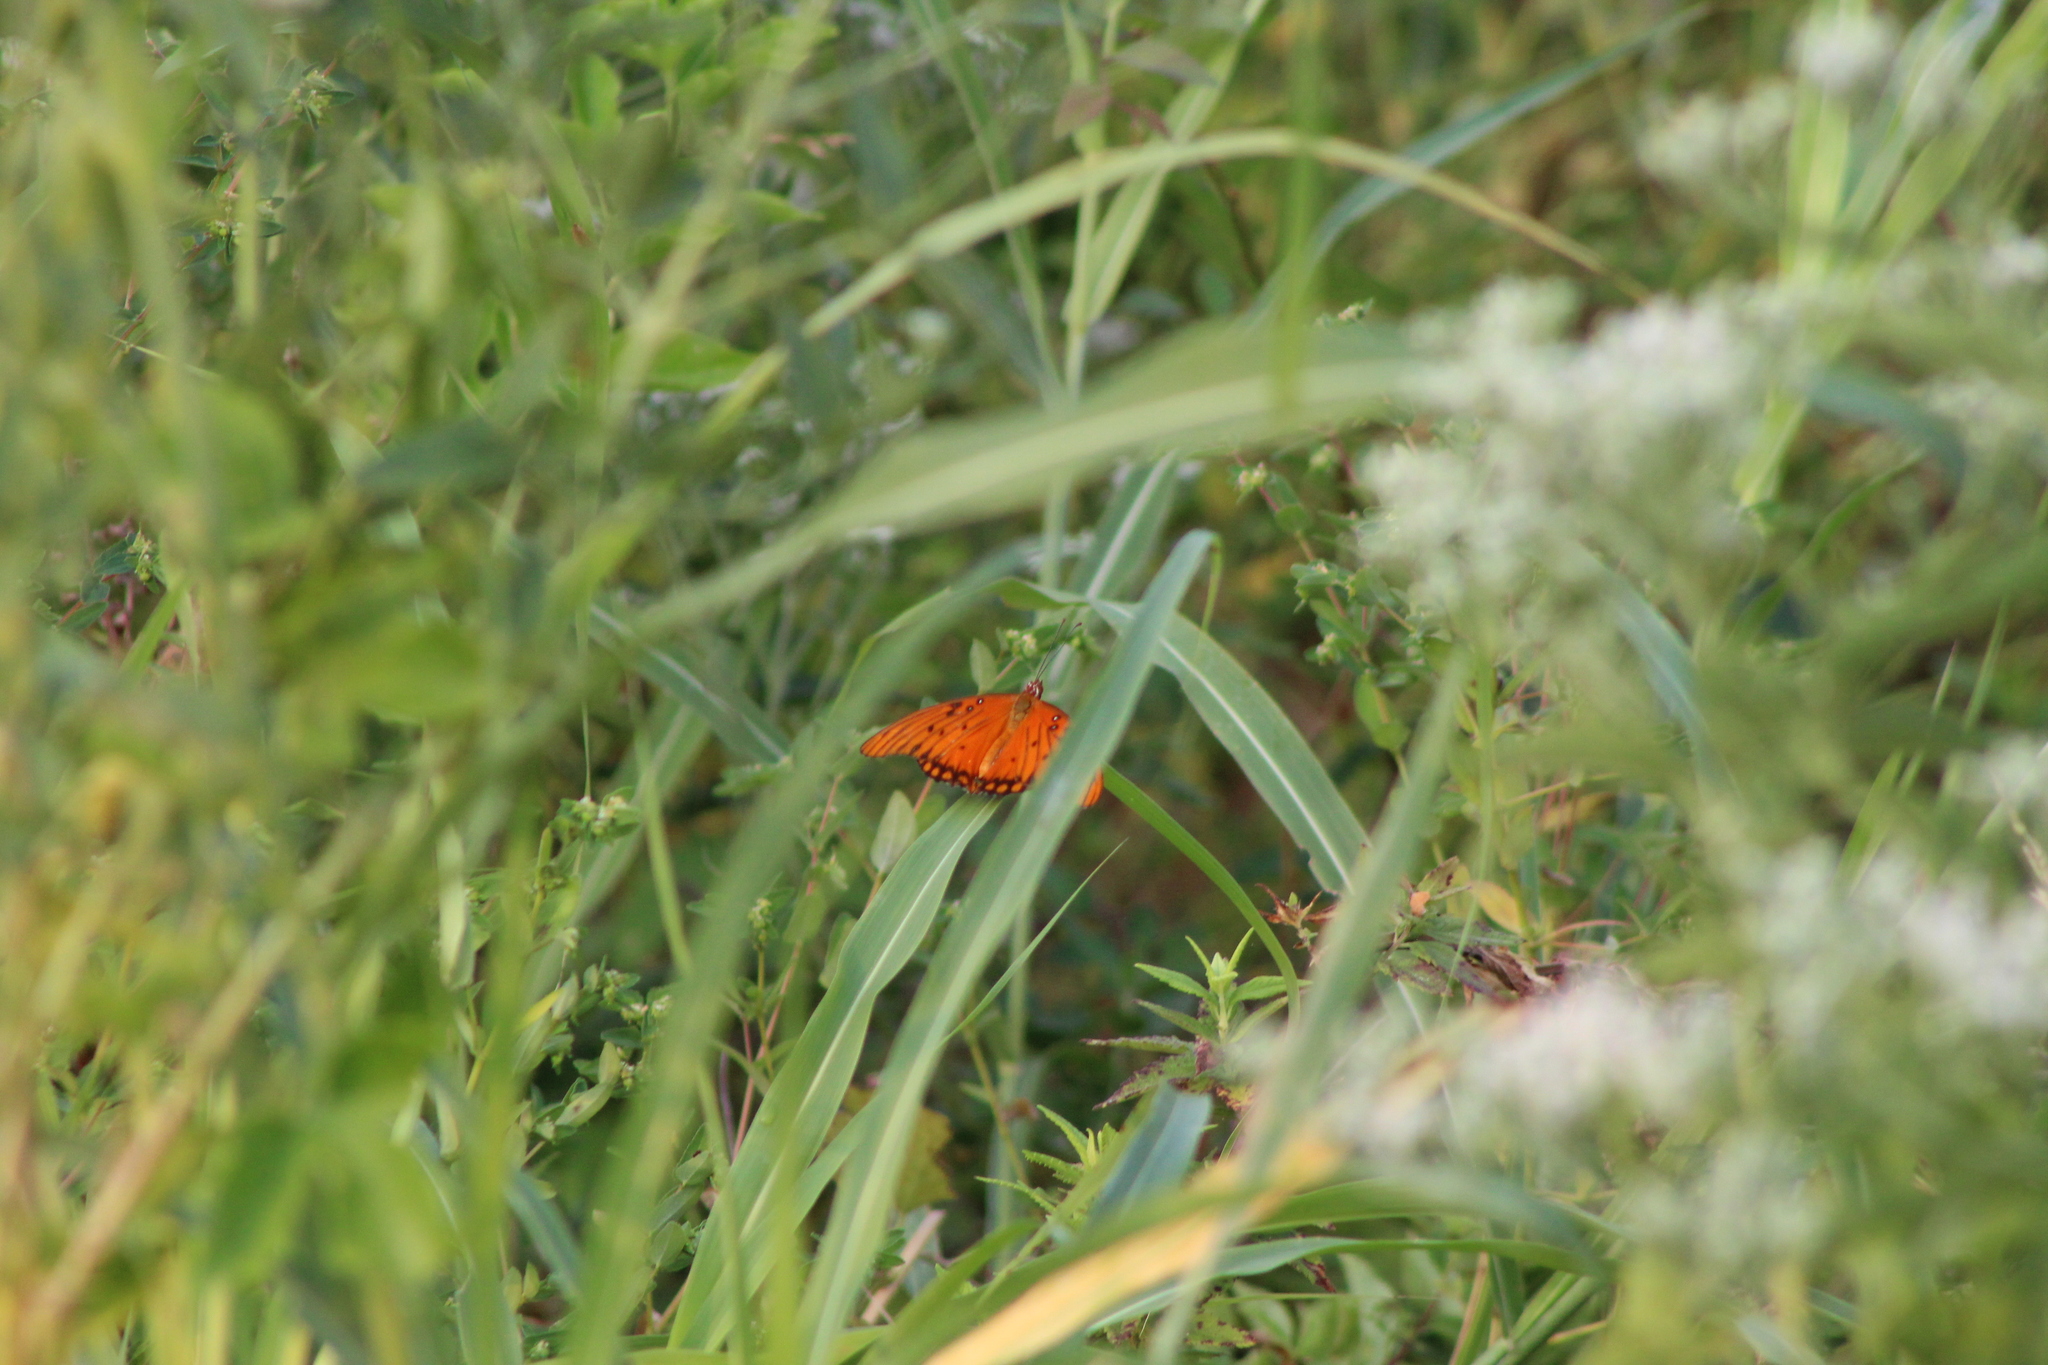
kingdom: Animalia
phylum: Arthropoda
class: Insecta
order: Lepidoptera
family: Nymphalidae
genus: Dione
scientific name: Dione vanillae
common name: Gulf fritillary
